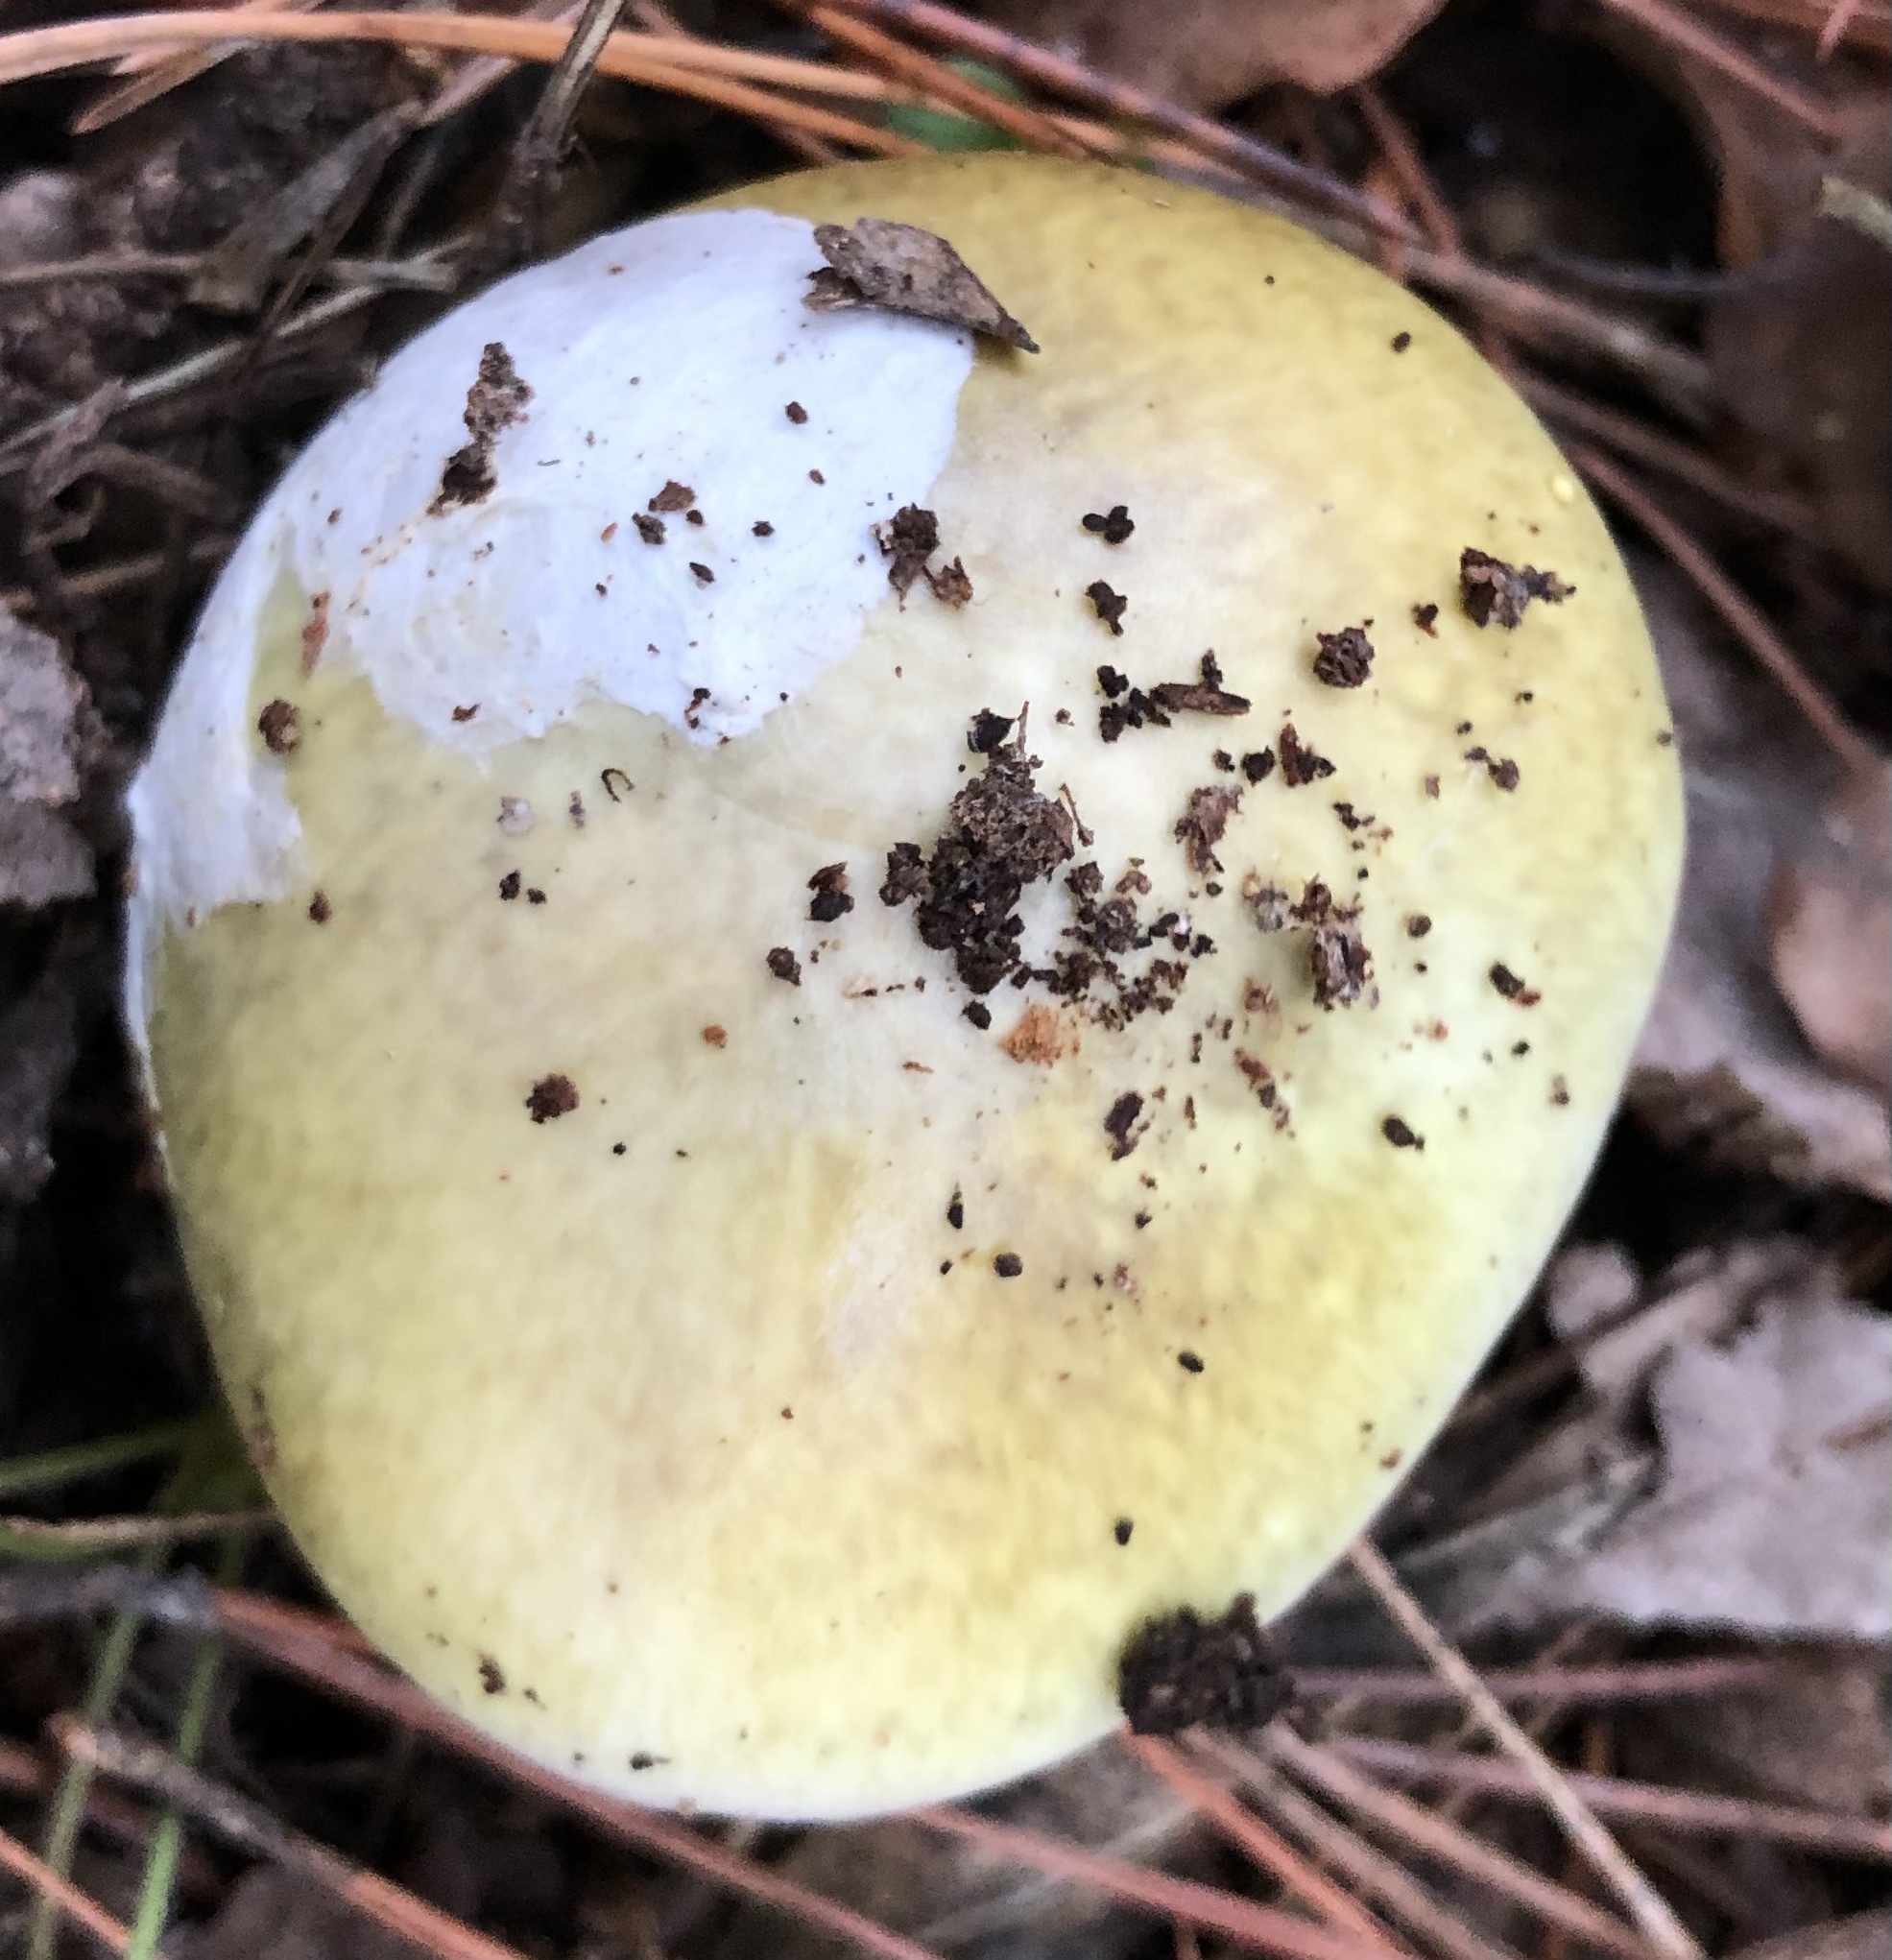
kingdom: Fungi
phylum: Basidiomycota
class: Agaricomycetes
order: Agaricales
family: Amanitaceae
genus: Amanita
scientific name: Amanita phalloides
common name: Death cap
